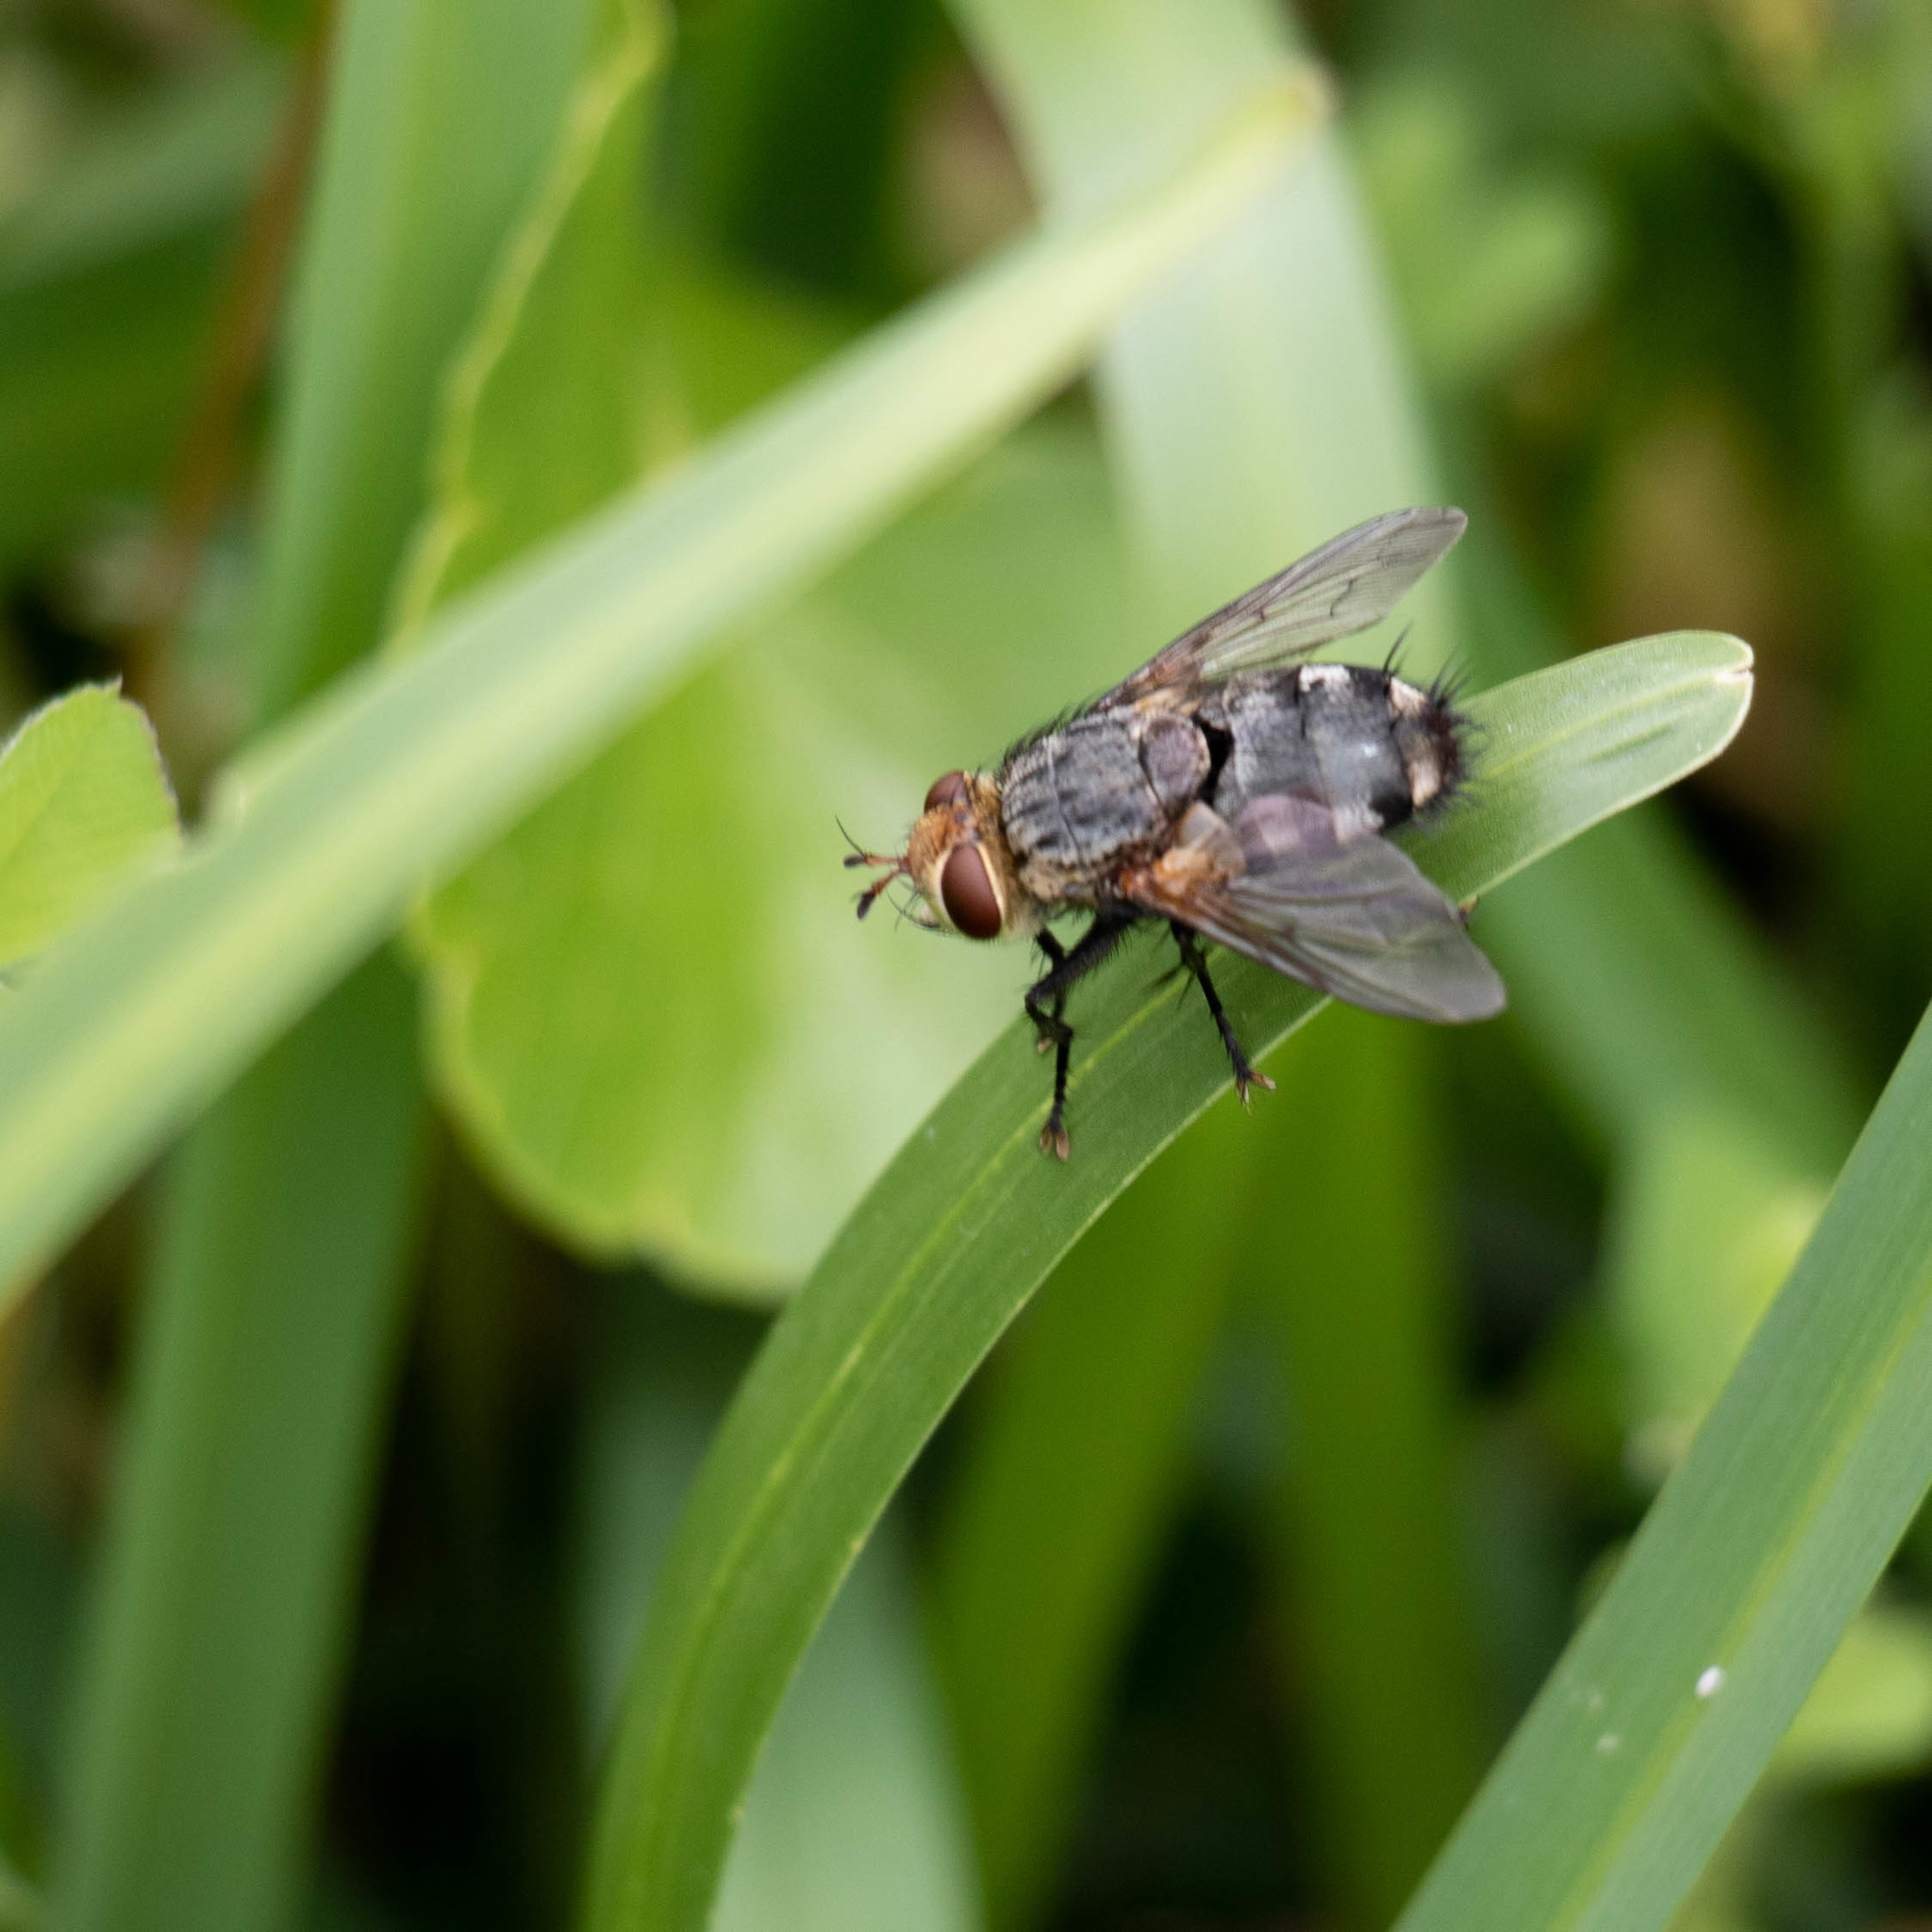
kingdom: Animalia
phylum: Arthropoda
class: Insecta
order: Diptera
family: Tachinidae
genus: Archytas
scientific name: Archytas marmoratus
